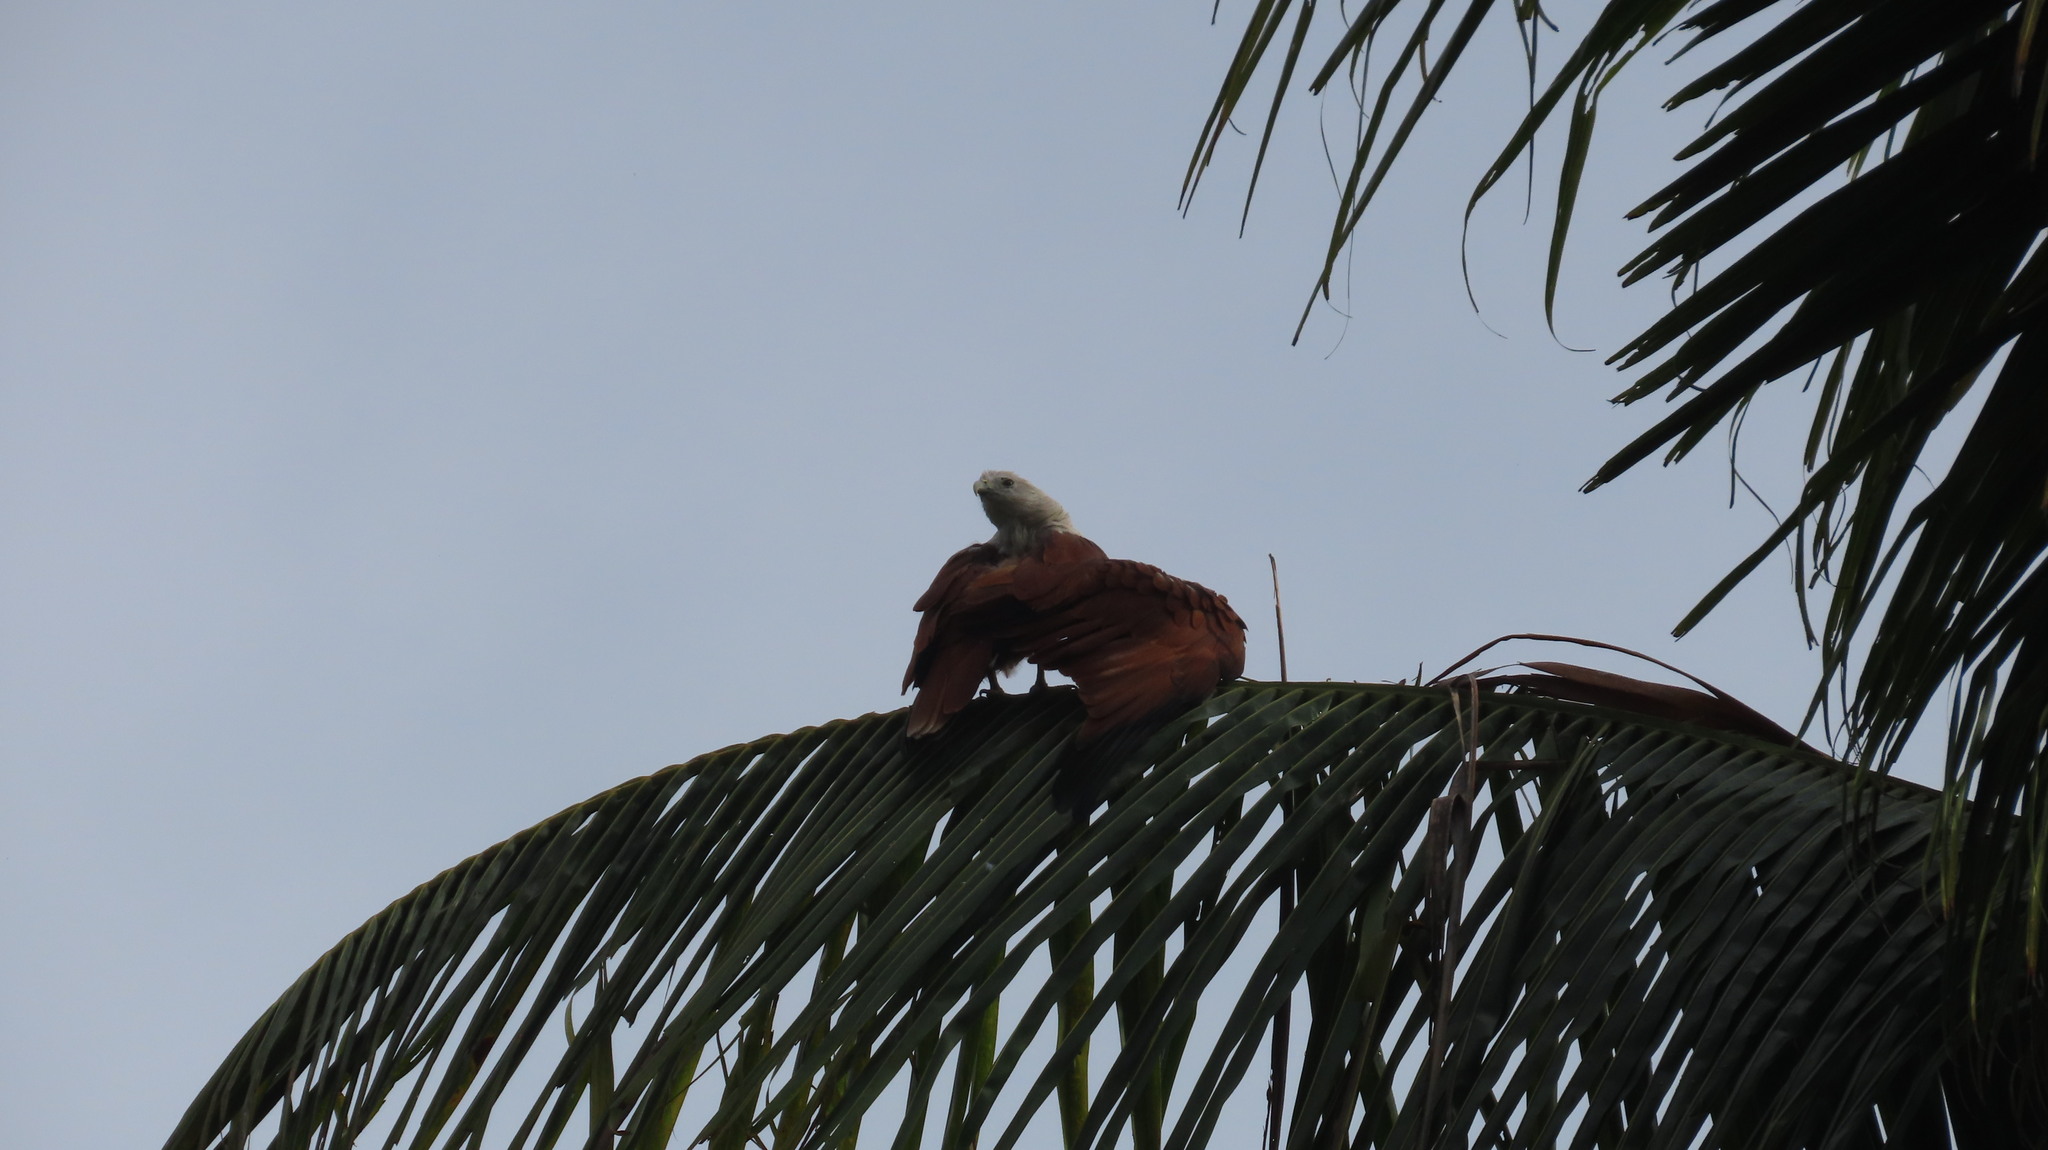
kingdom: Animalia
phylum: Chordata
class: Aves
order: Accipitriformes
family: Accipitridae
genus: Haliastur
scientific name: Haliastur indus
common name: Brahminy kite
